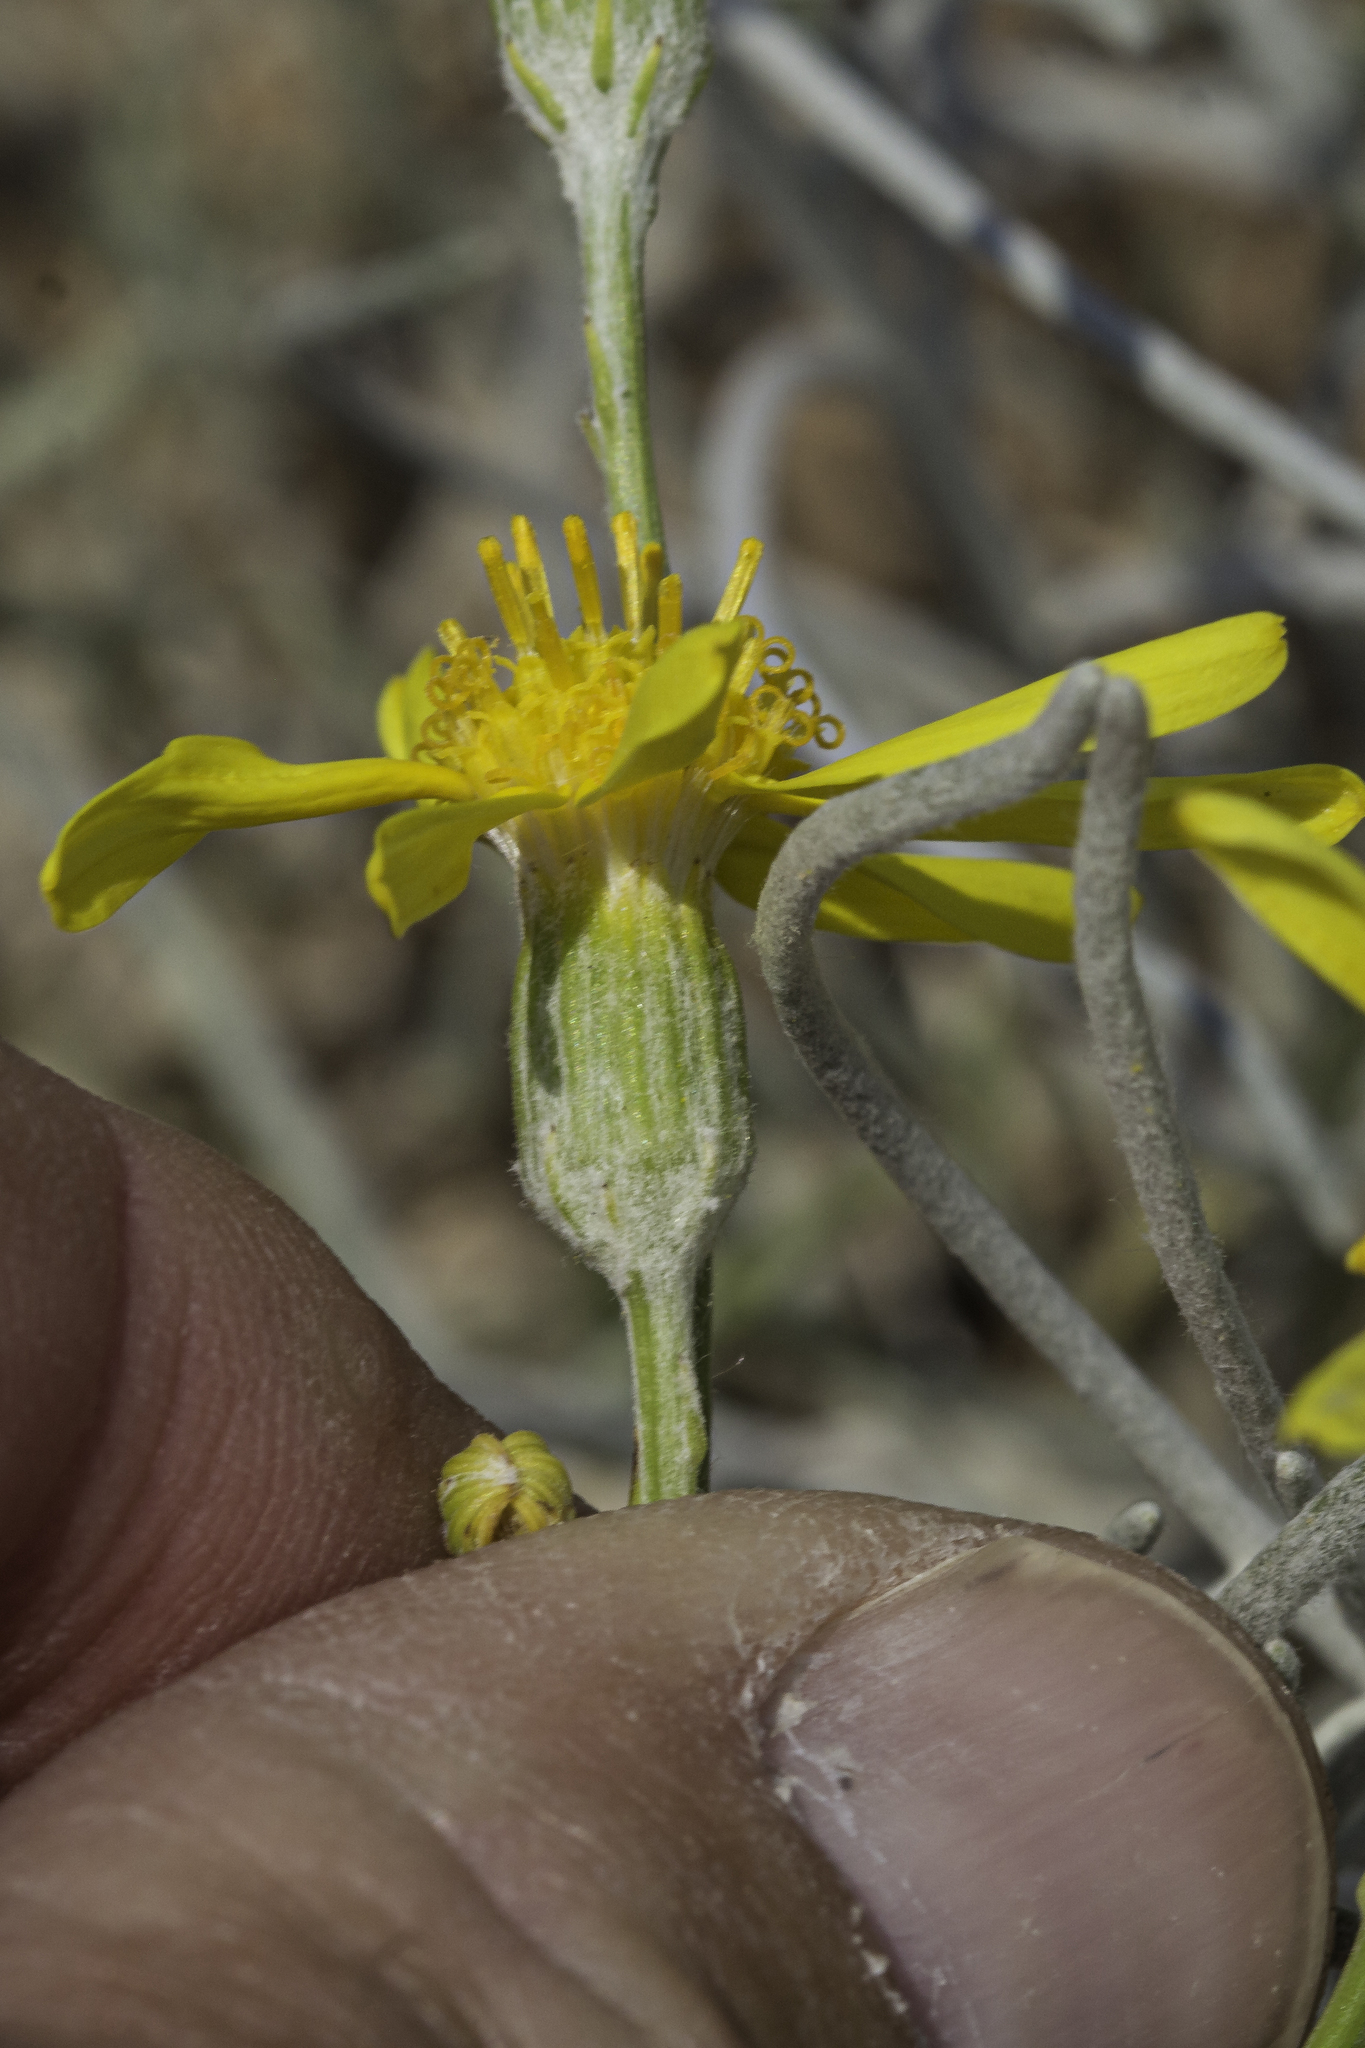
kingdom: Plantae
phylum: Tracheophyta
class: Magnoliopsida
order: Asterales
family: Asteraceae
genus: Senecio
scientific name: Senecio flaccidus
